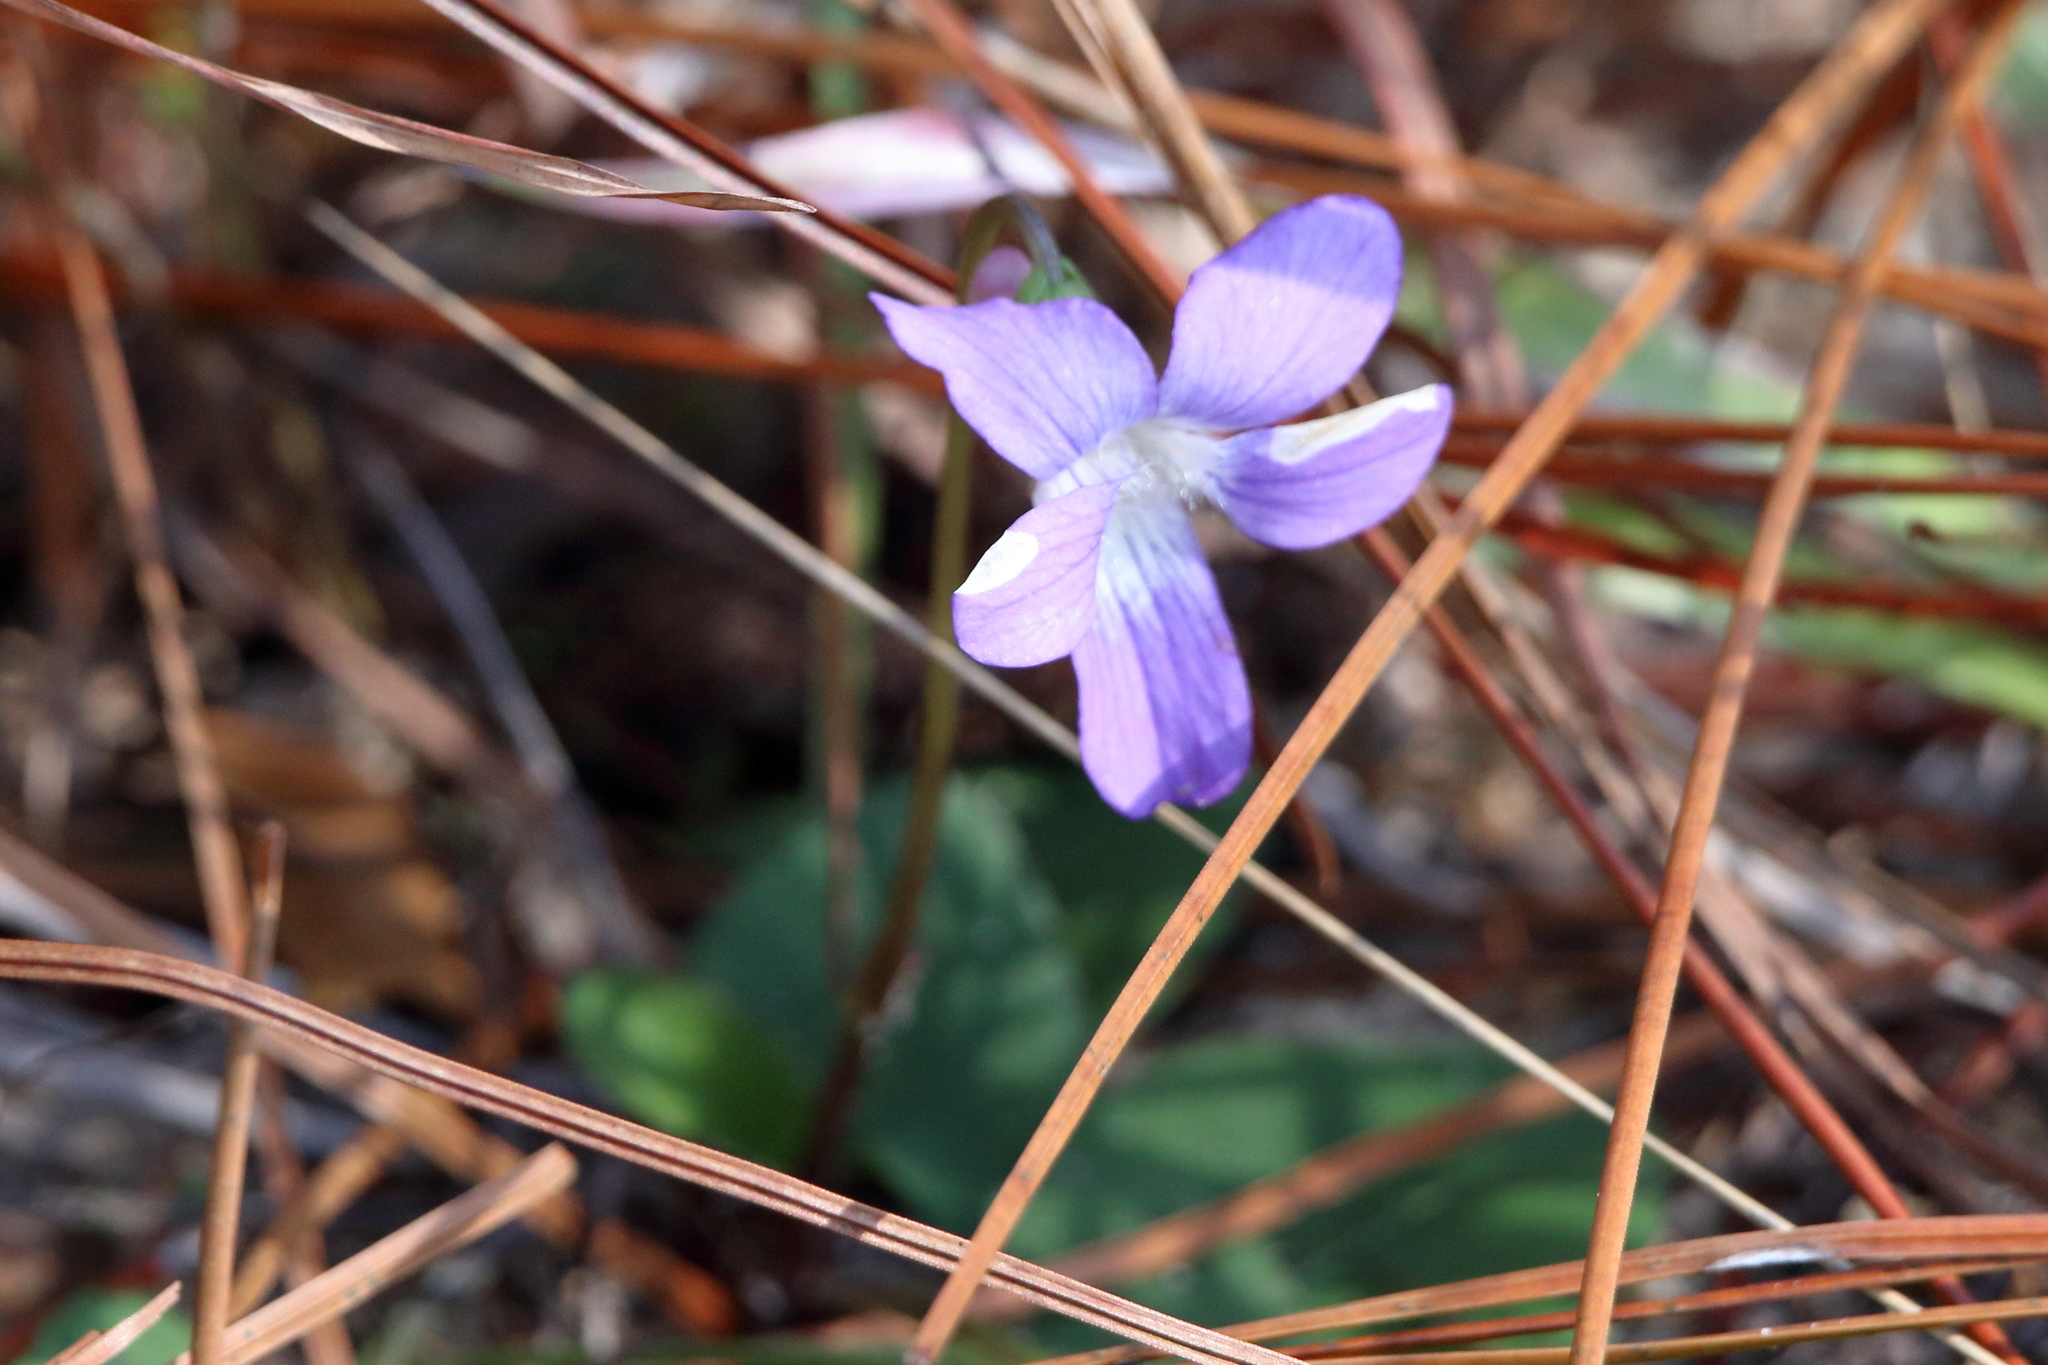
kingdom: Plantae
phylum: Tracheophyta
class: Magnoliopsida
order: Malpighiales
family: Violaceae
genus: Viola
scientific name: Viola septemloba
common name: Southern coast violet
